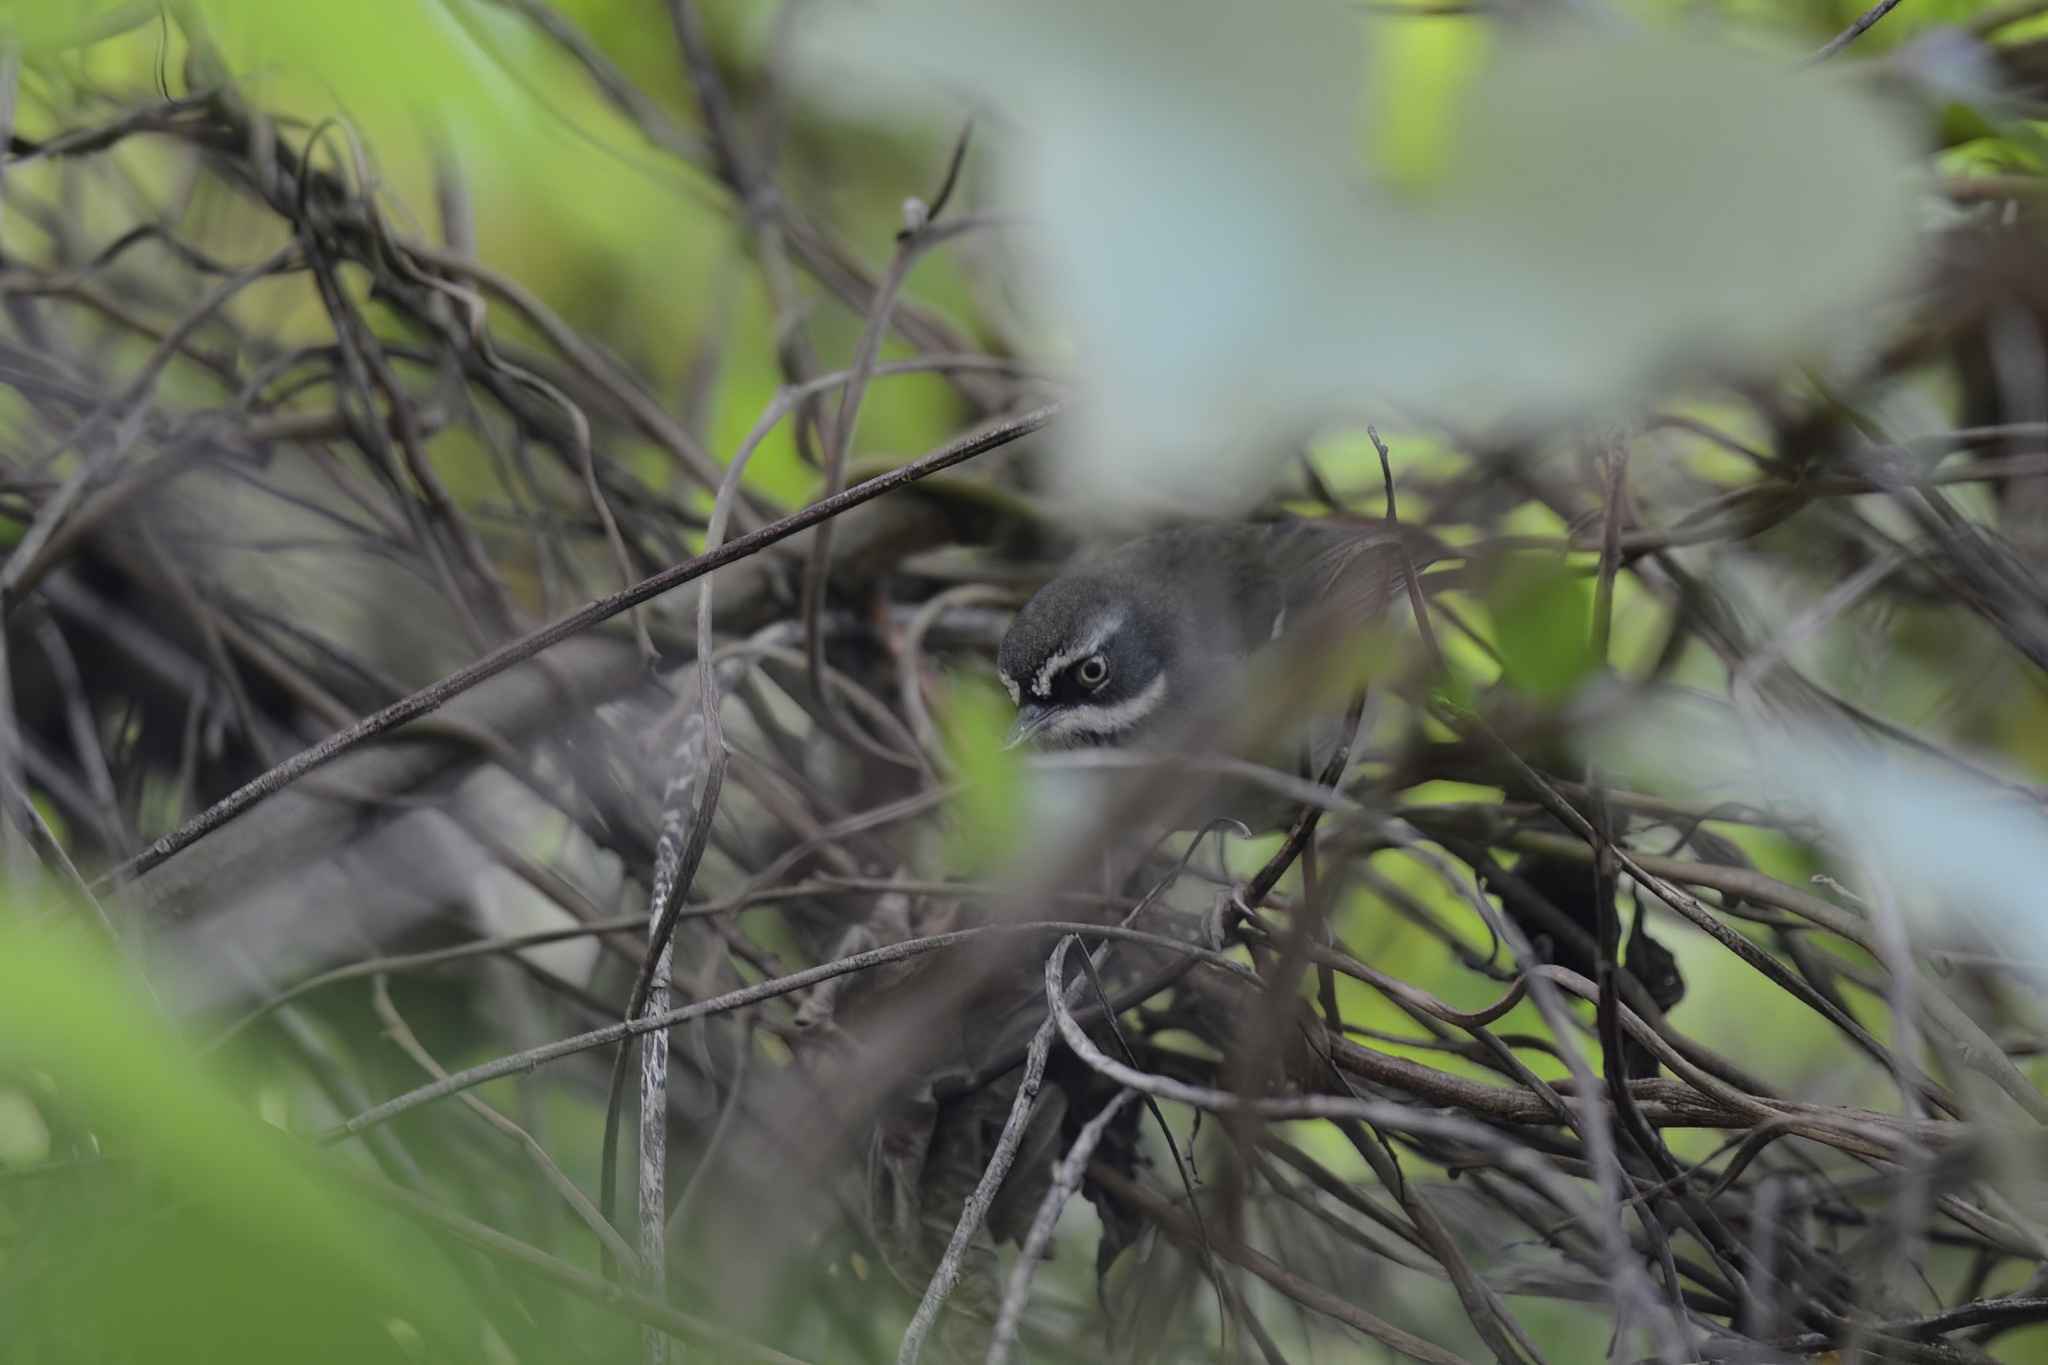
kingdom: Animalia
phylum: Chordata
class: Aves
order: Passeriformes
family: Acanthizidae
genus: Sericornis
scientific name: Sericornis frontalis
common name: White-browed scrubwren
